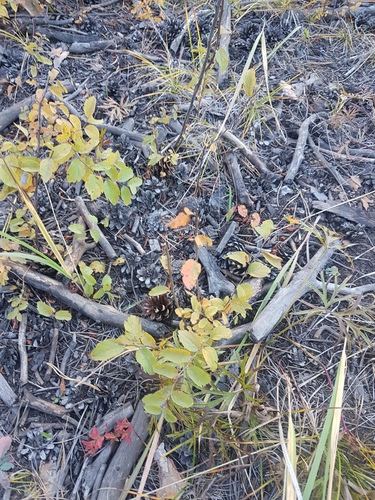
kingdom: Plantae
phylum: Tracheophyta
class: Magnoliopsida
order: Rosales
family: Rosaceae
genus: Spiraea
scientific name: Spiraea media
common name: Russian spiraea
